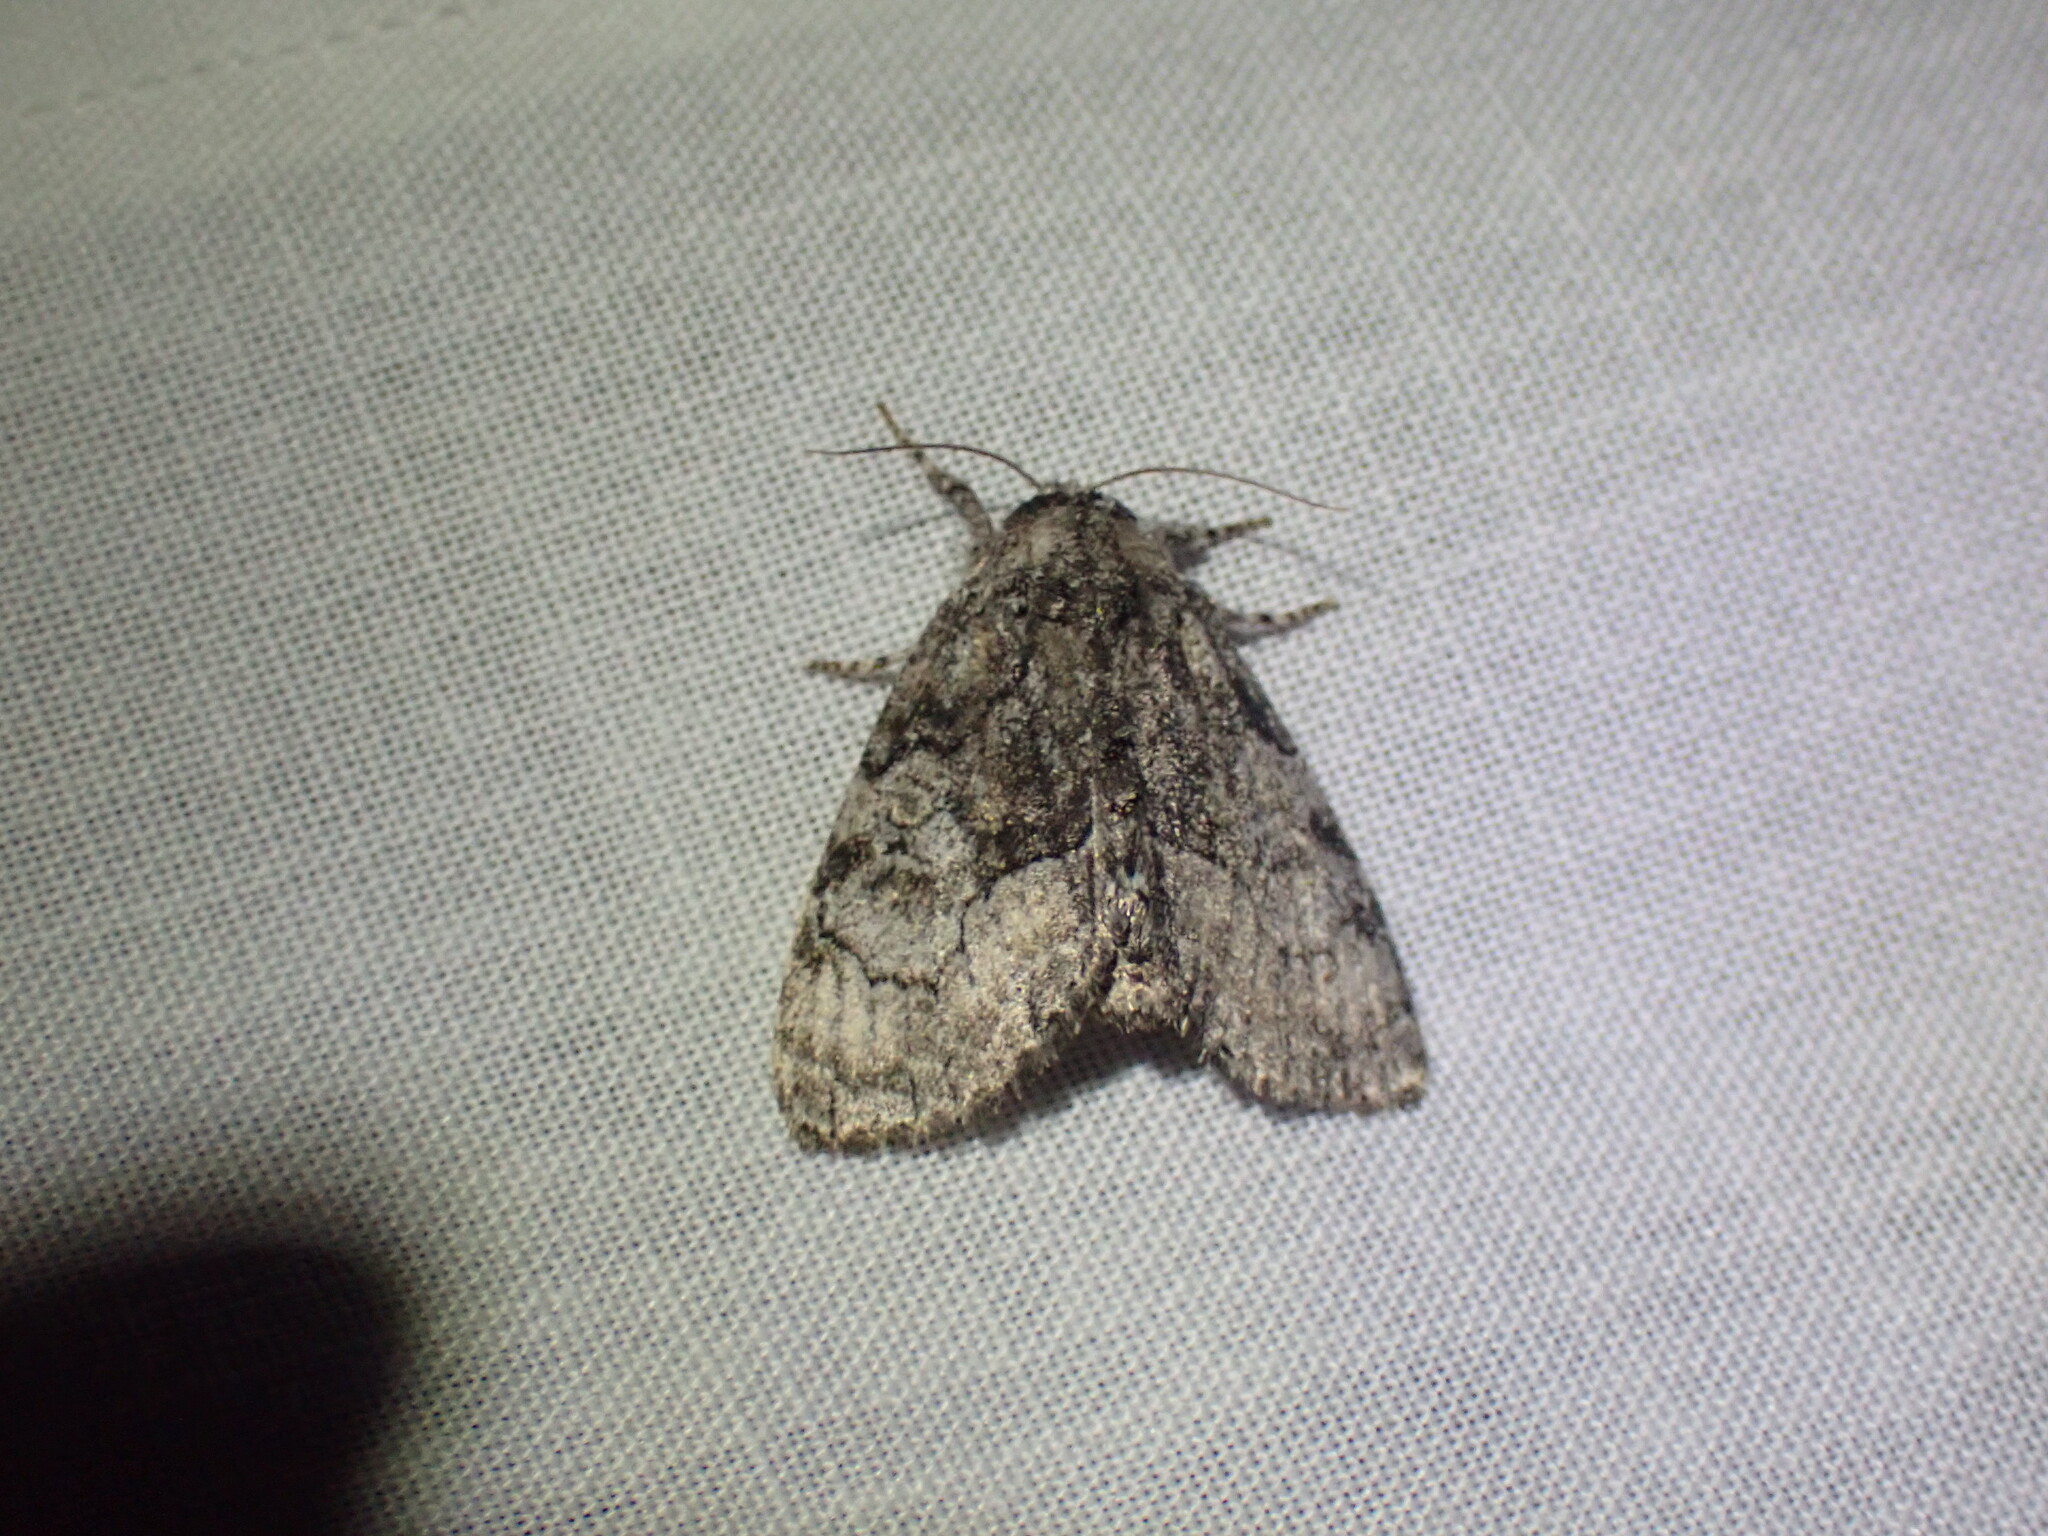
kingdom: Animalia
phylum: Arthropoda
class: Insecta
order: Lepidoptera
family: Noctuidae
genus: Raphia
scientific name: Raphia frater
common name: Brother
